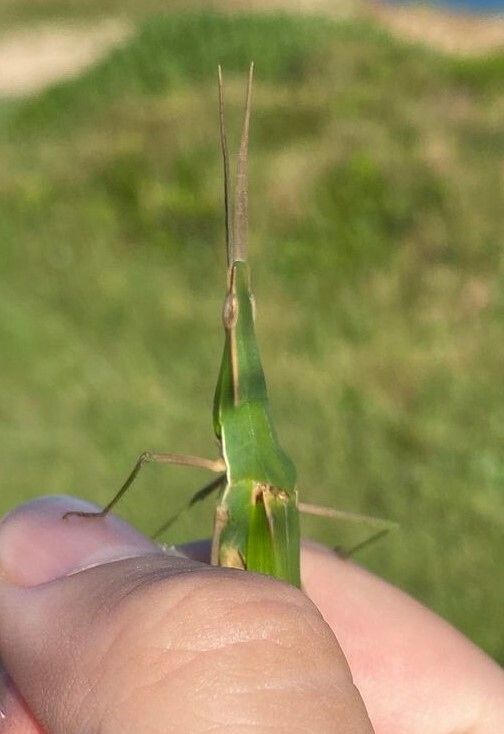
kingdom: Animalia
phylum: Arthropoda
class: Insecta
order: Orthoptera
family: Acrididae
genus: Acrida
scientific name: Acrida conica
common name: Giant green slantface
